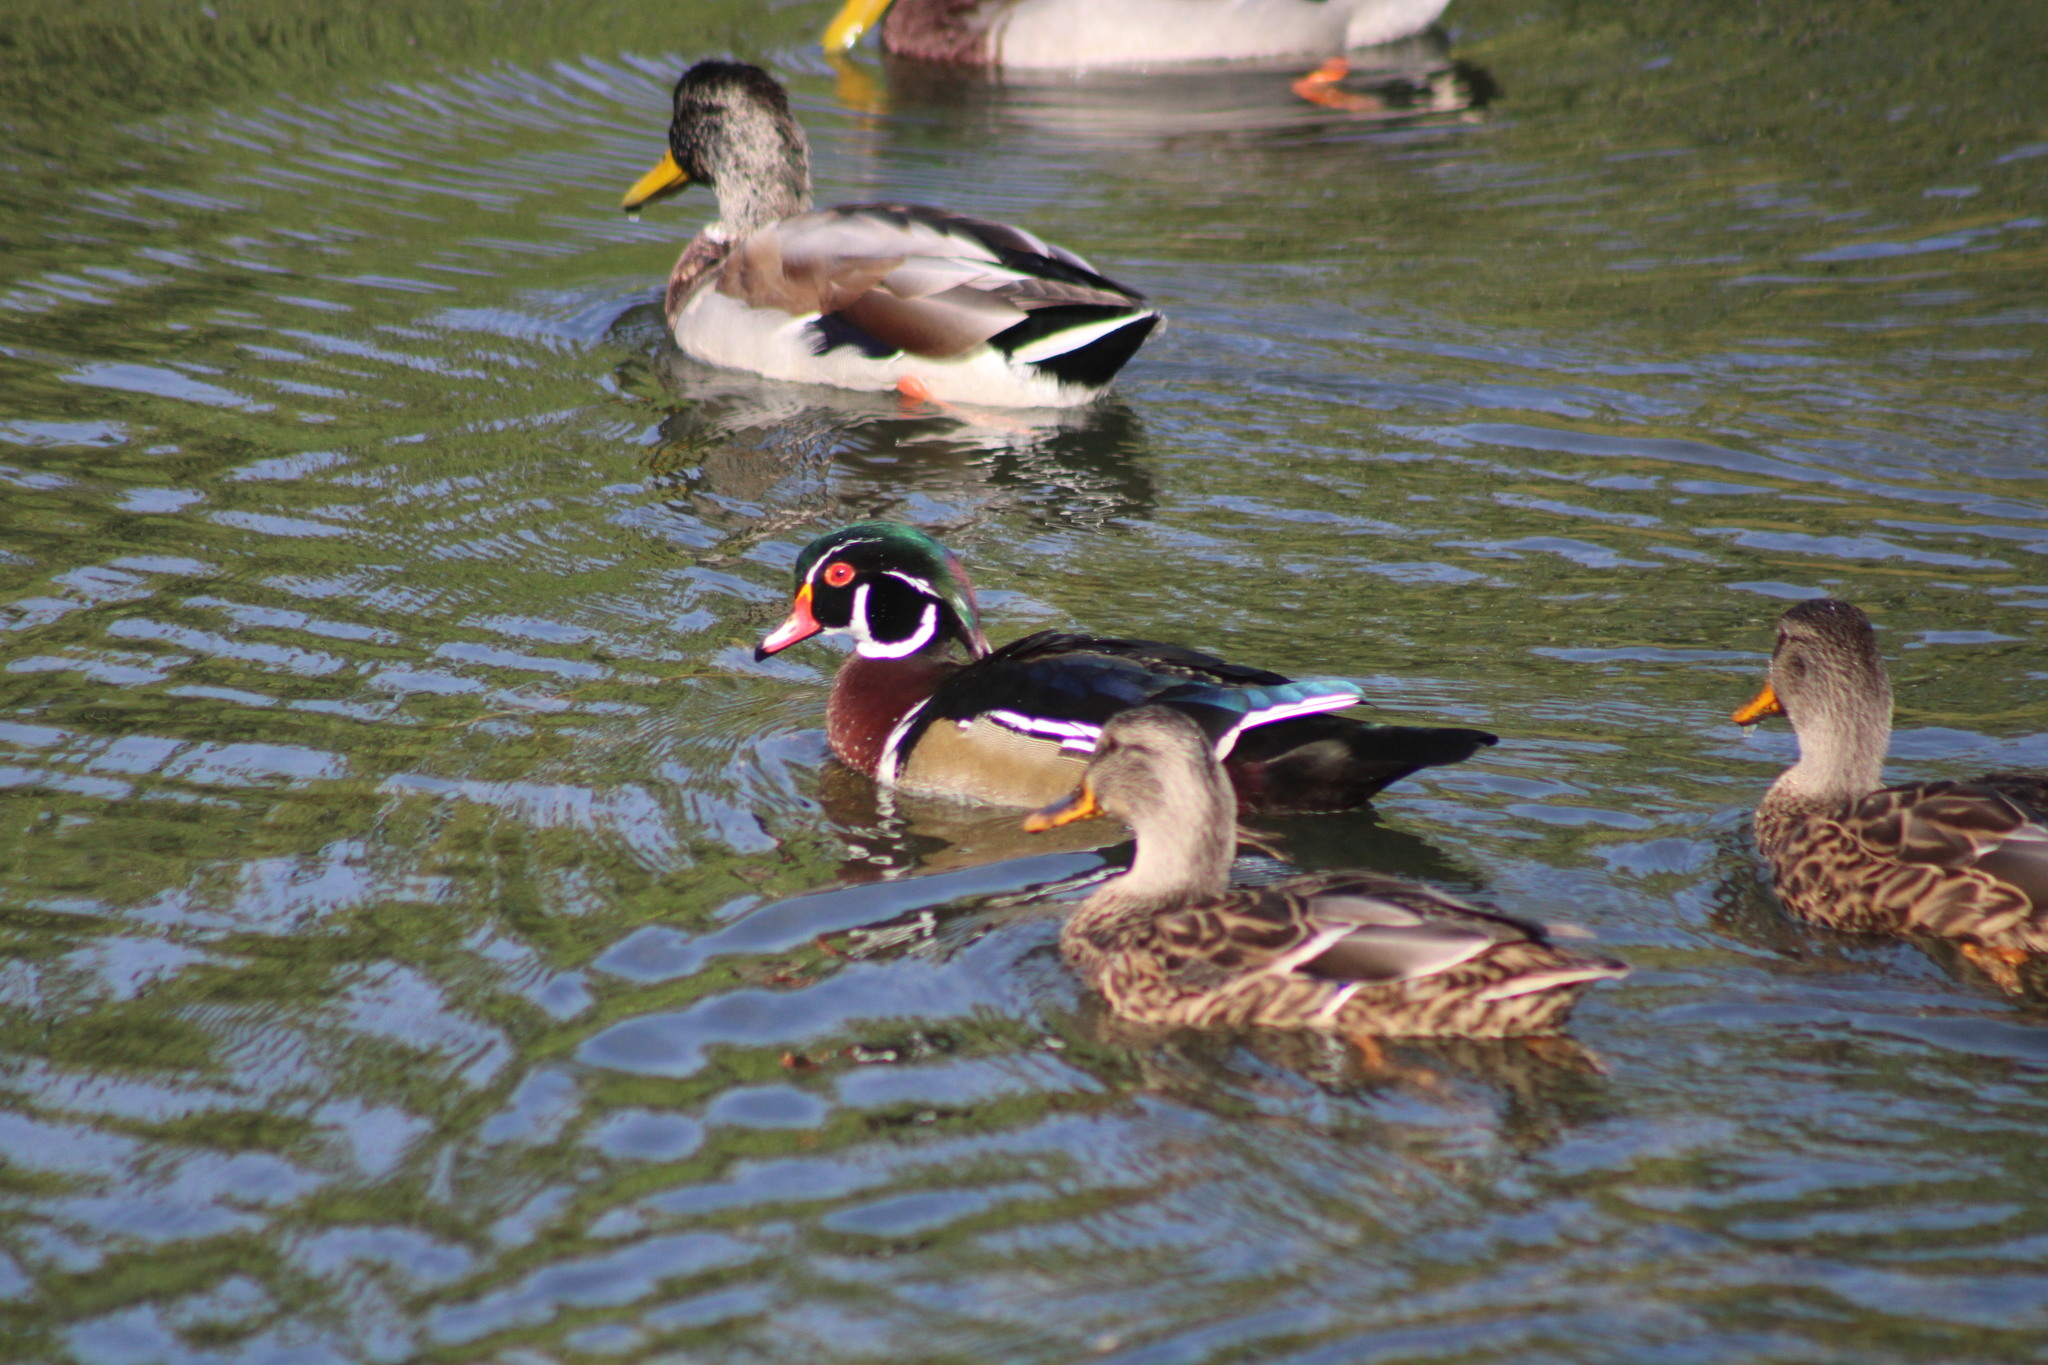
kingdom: Animalia
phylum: Chordata
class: Aves
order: Anseriformes
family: Anatidae
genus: Aix
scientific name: Aix sponsa
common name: Wood duck
